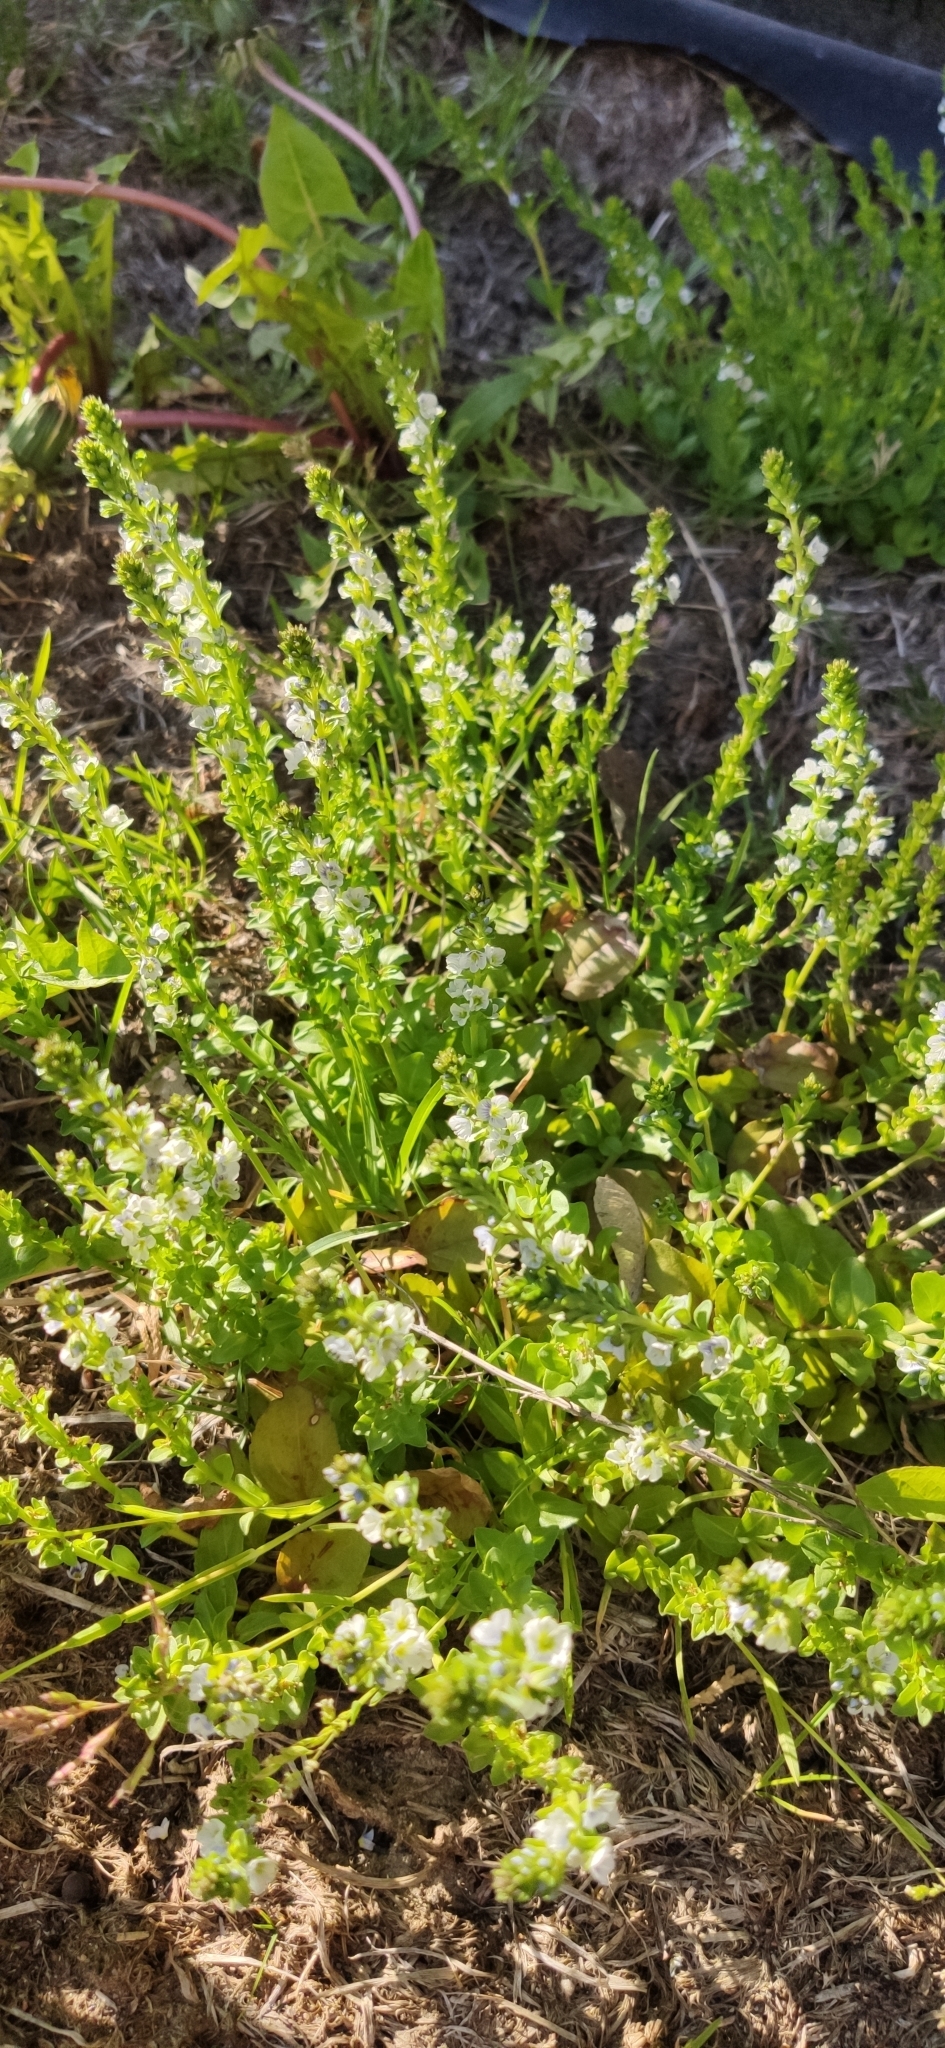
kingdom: Plantae
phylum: Tracheophyta
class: Magnoliopsida
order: Lamiales
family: Plantaginaceae
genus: Veronica
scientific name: Veronica serpyllifolia
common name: Thyme-leaved speedwell
